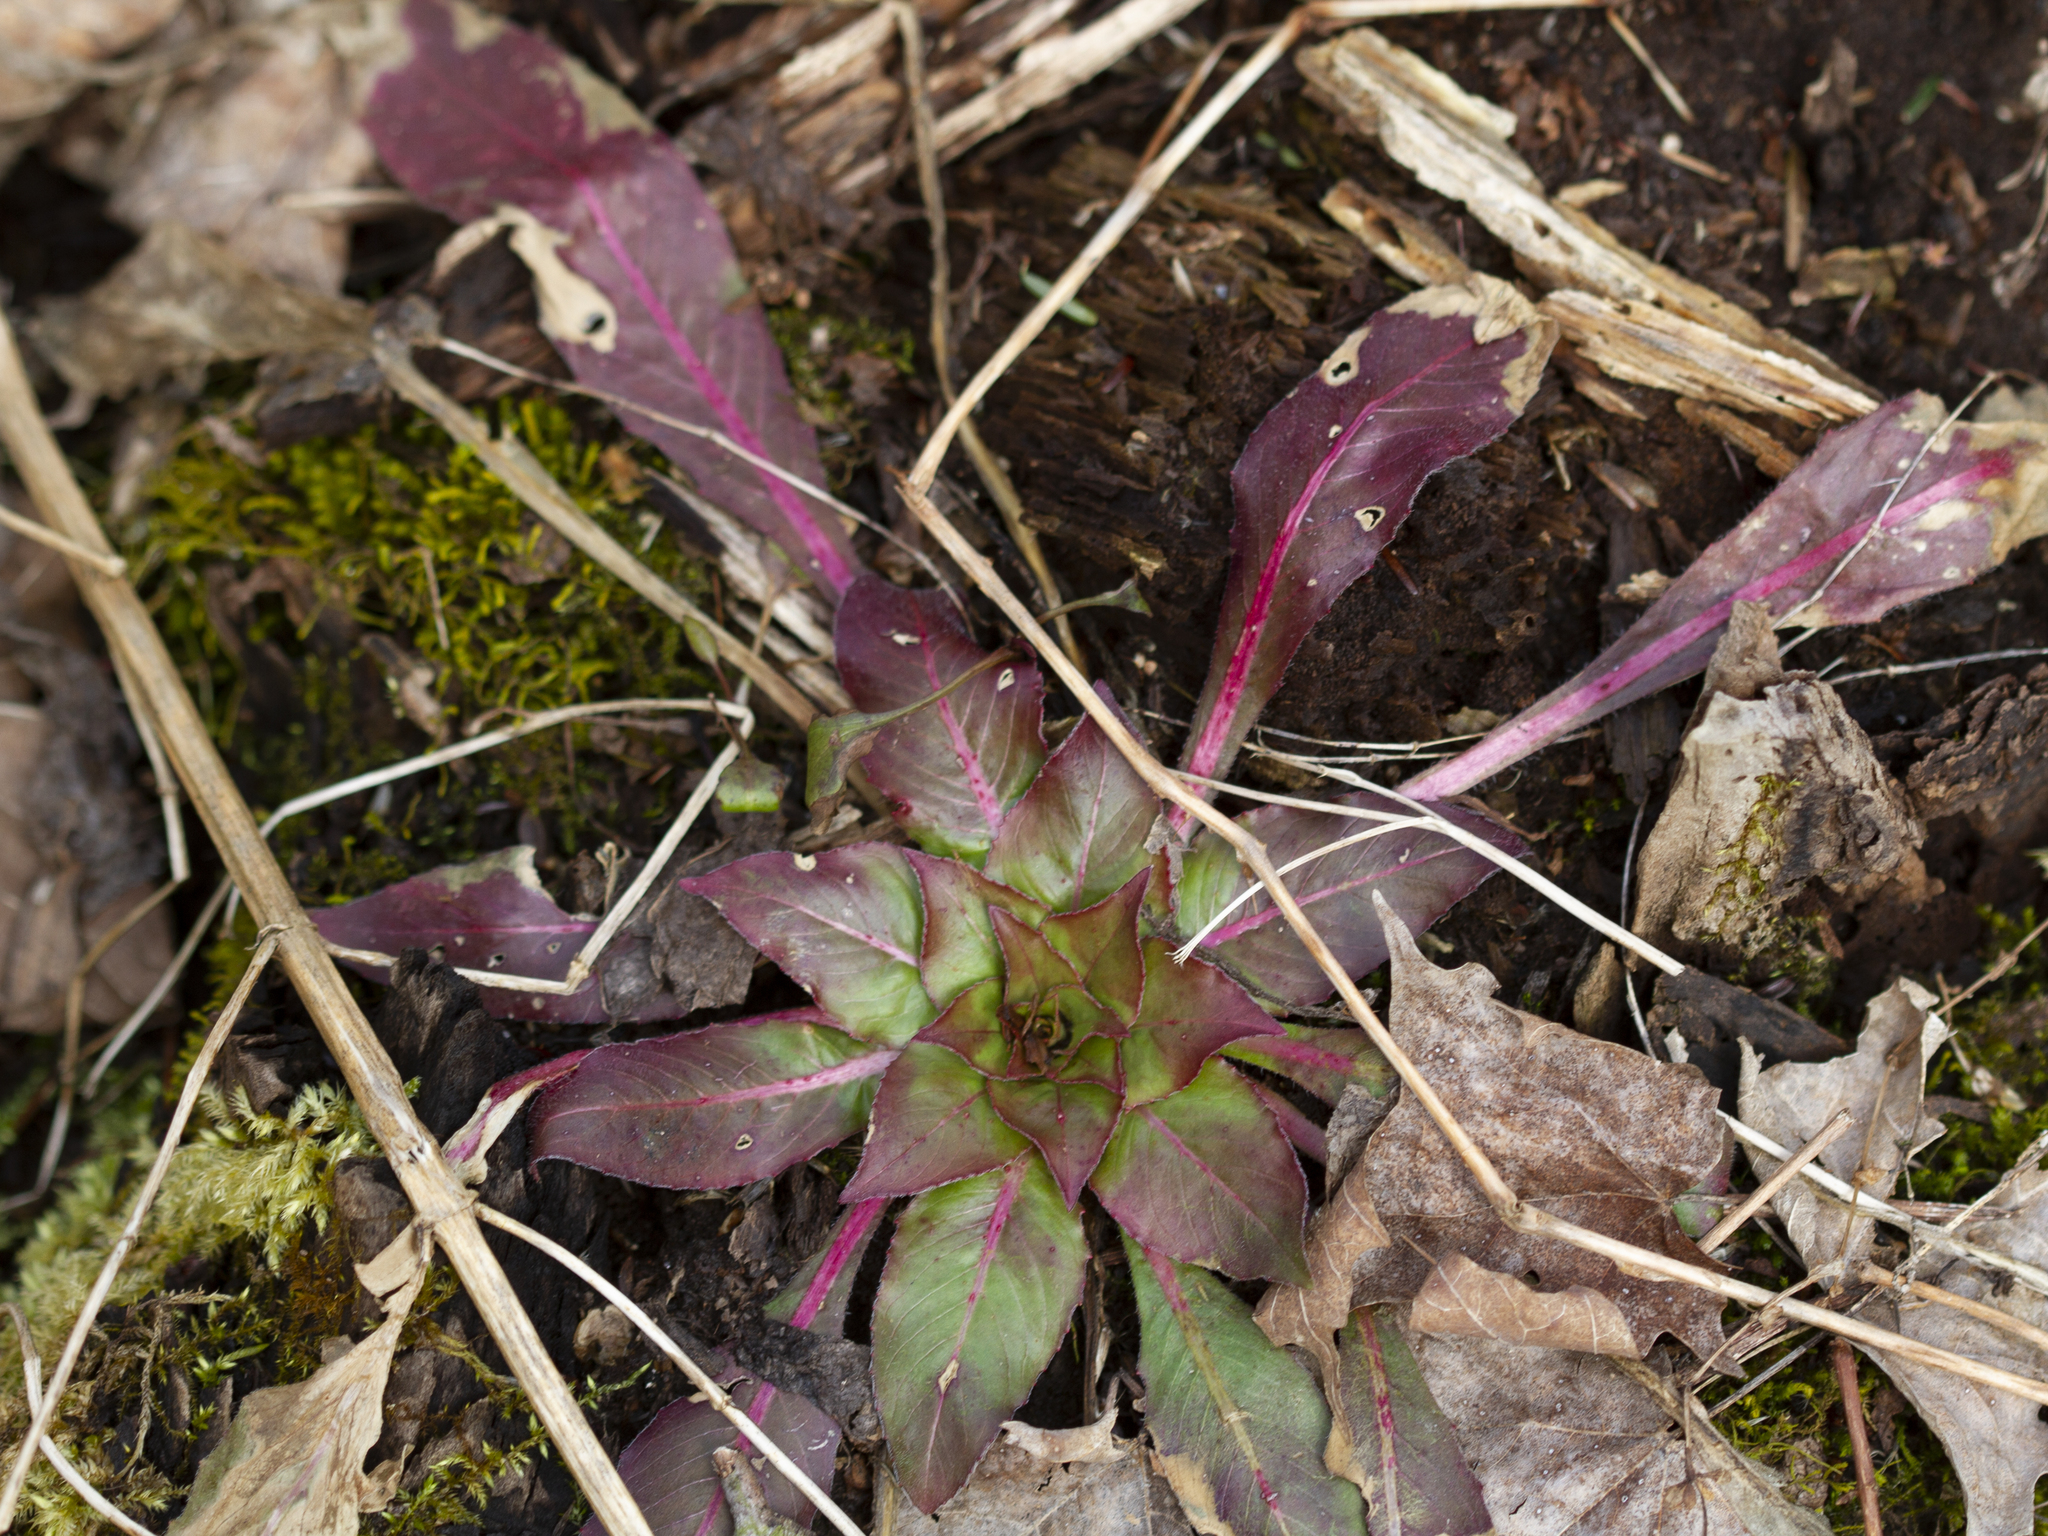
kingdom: Plantae
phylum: Tracheophyta
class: Magnoliopsida
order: Myrtales
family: Onagraceae
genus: Oenothera
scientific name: Oenothera biennis
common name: Common evening-primrose
